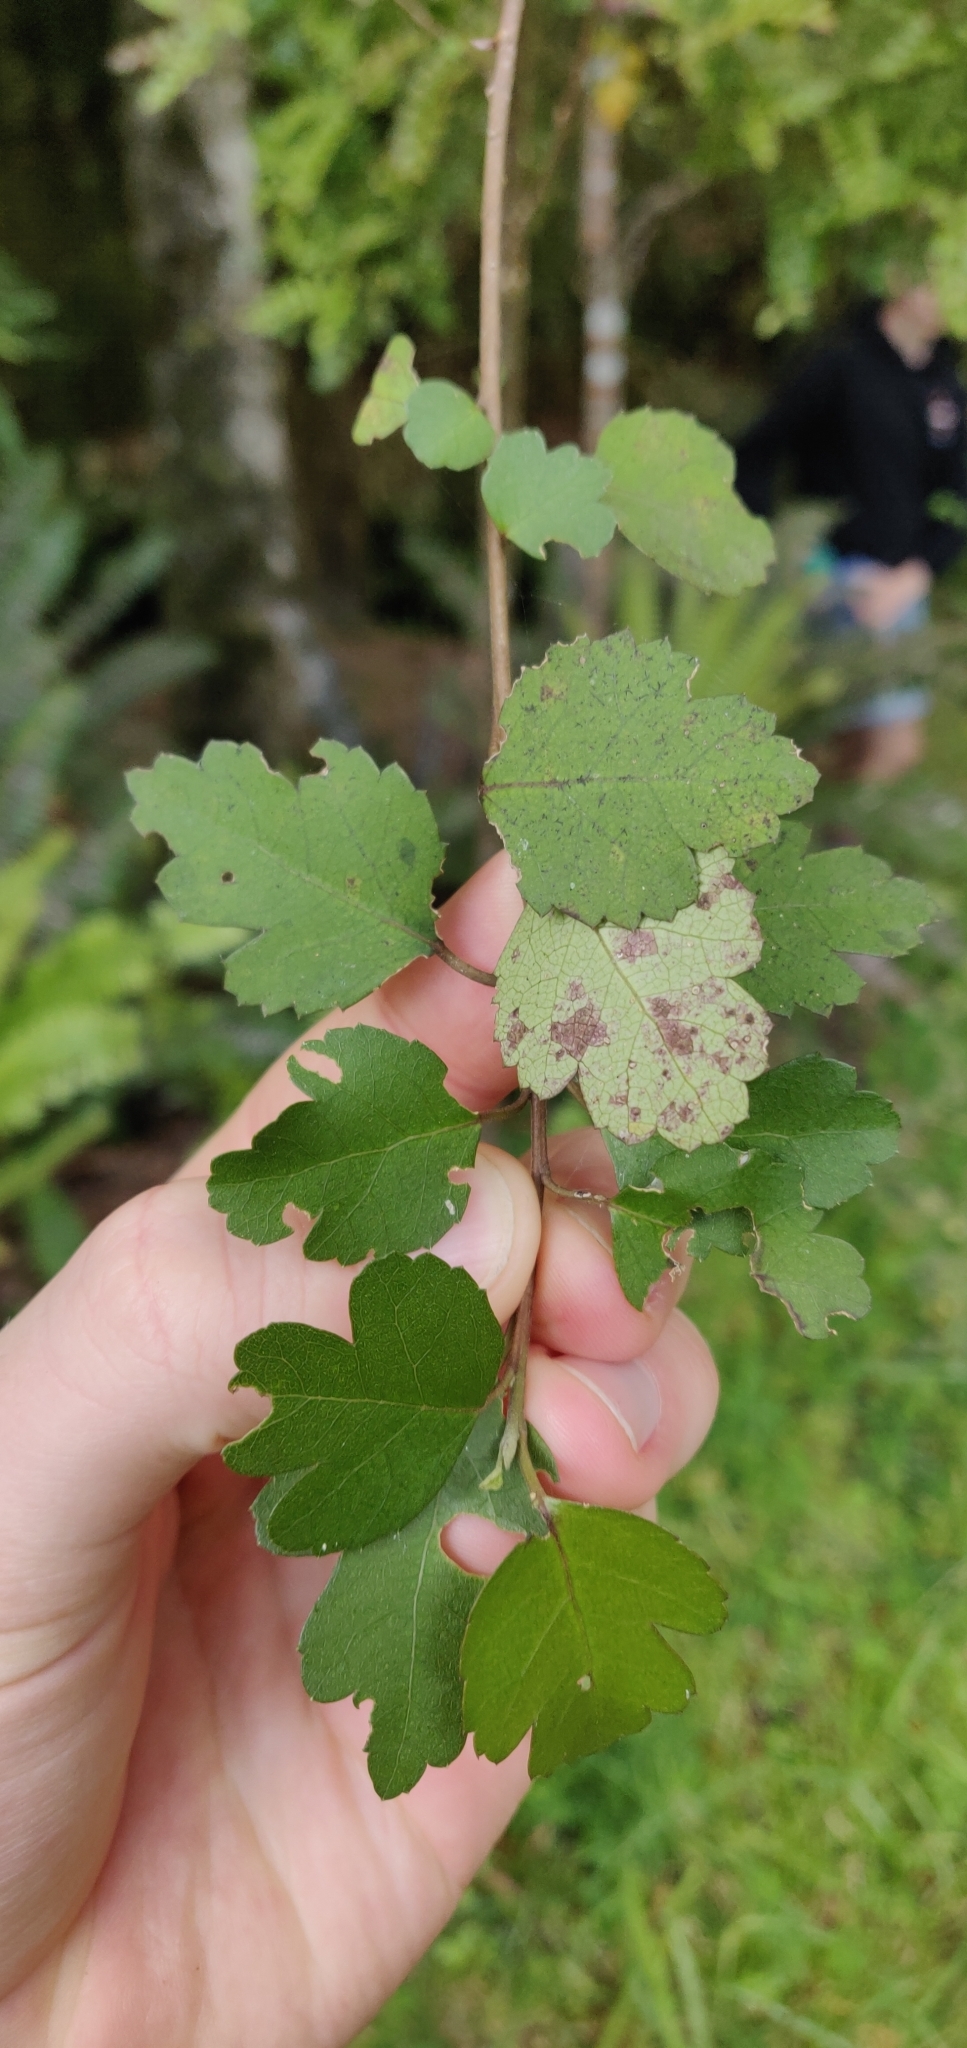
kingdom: Plantae
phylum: Tracheophyta
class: Magnoliopsida
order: Malvales
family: Malvaceae
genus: Hoheria
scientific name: Hoheria sexstylosa
